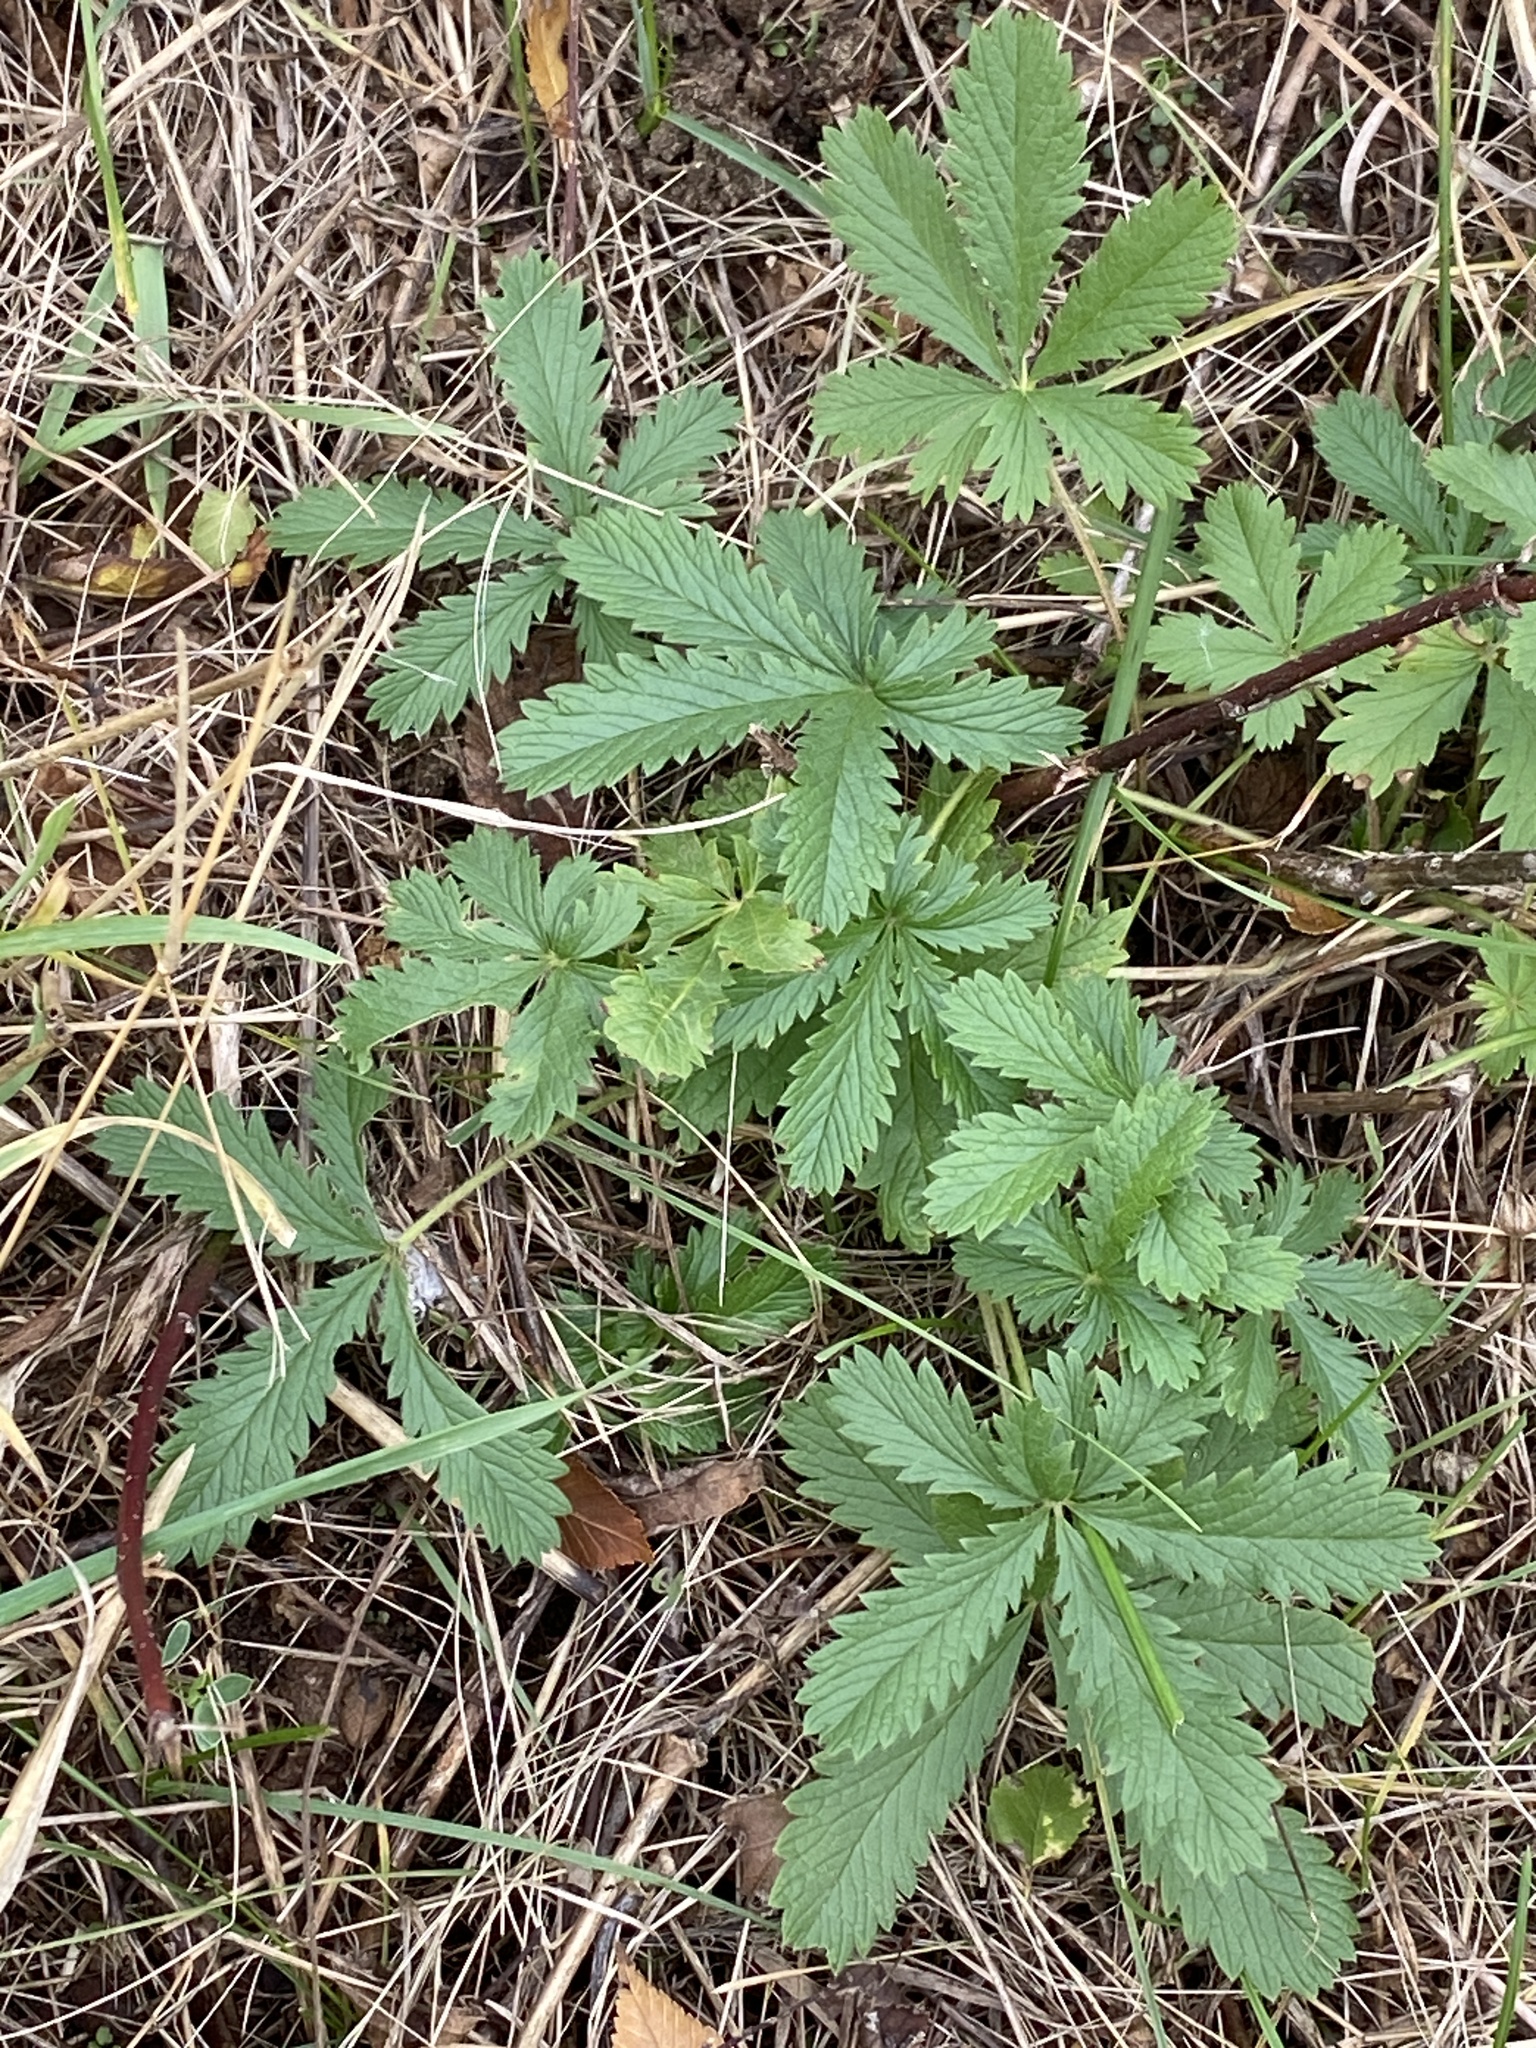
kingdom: Plantae
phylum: Tracheophyta
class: Magnoliopsida
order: Rosales
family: Rosaceae
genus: Potentilla
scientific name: Potentilla recta
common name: Sulphur cinquefoil
